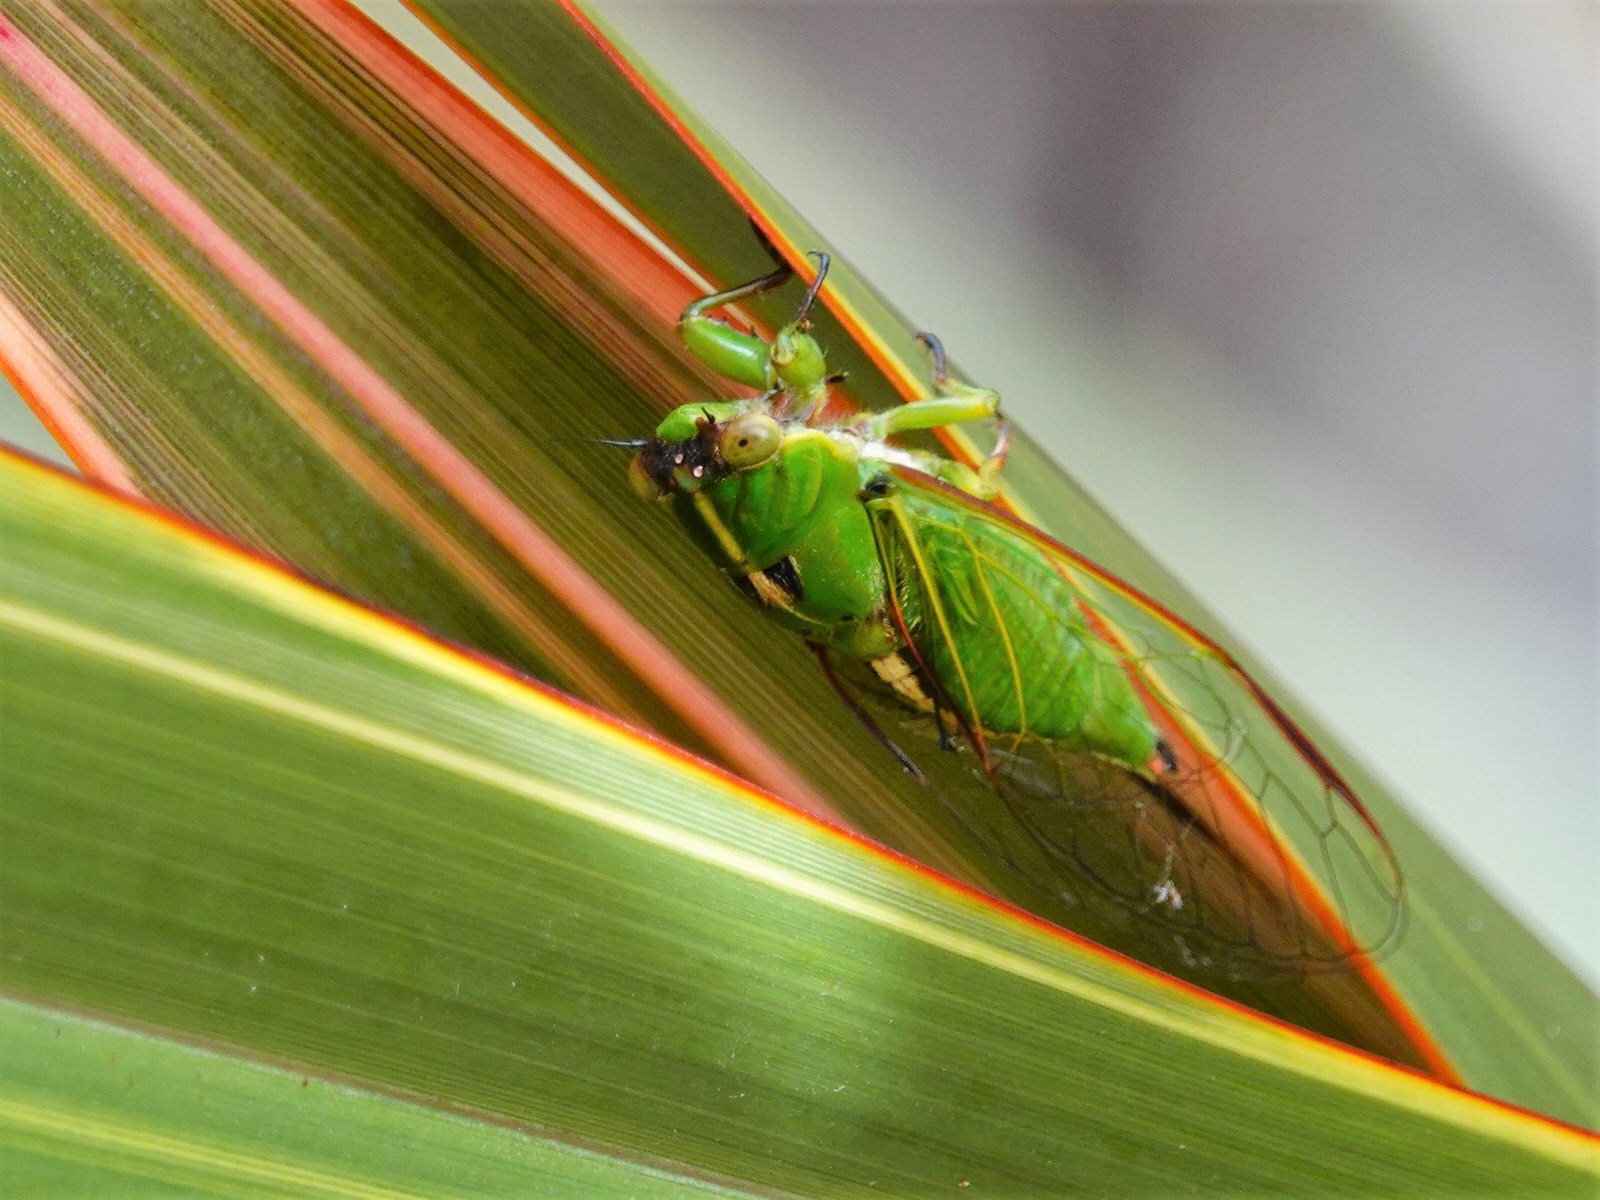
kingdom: Animalia
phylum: Arthropoda
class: Insecta
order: Hemiptera
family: Cicadidae
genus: Kikihia
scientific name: Kikihia cutora
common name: Northern snoring cicada
